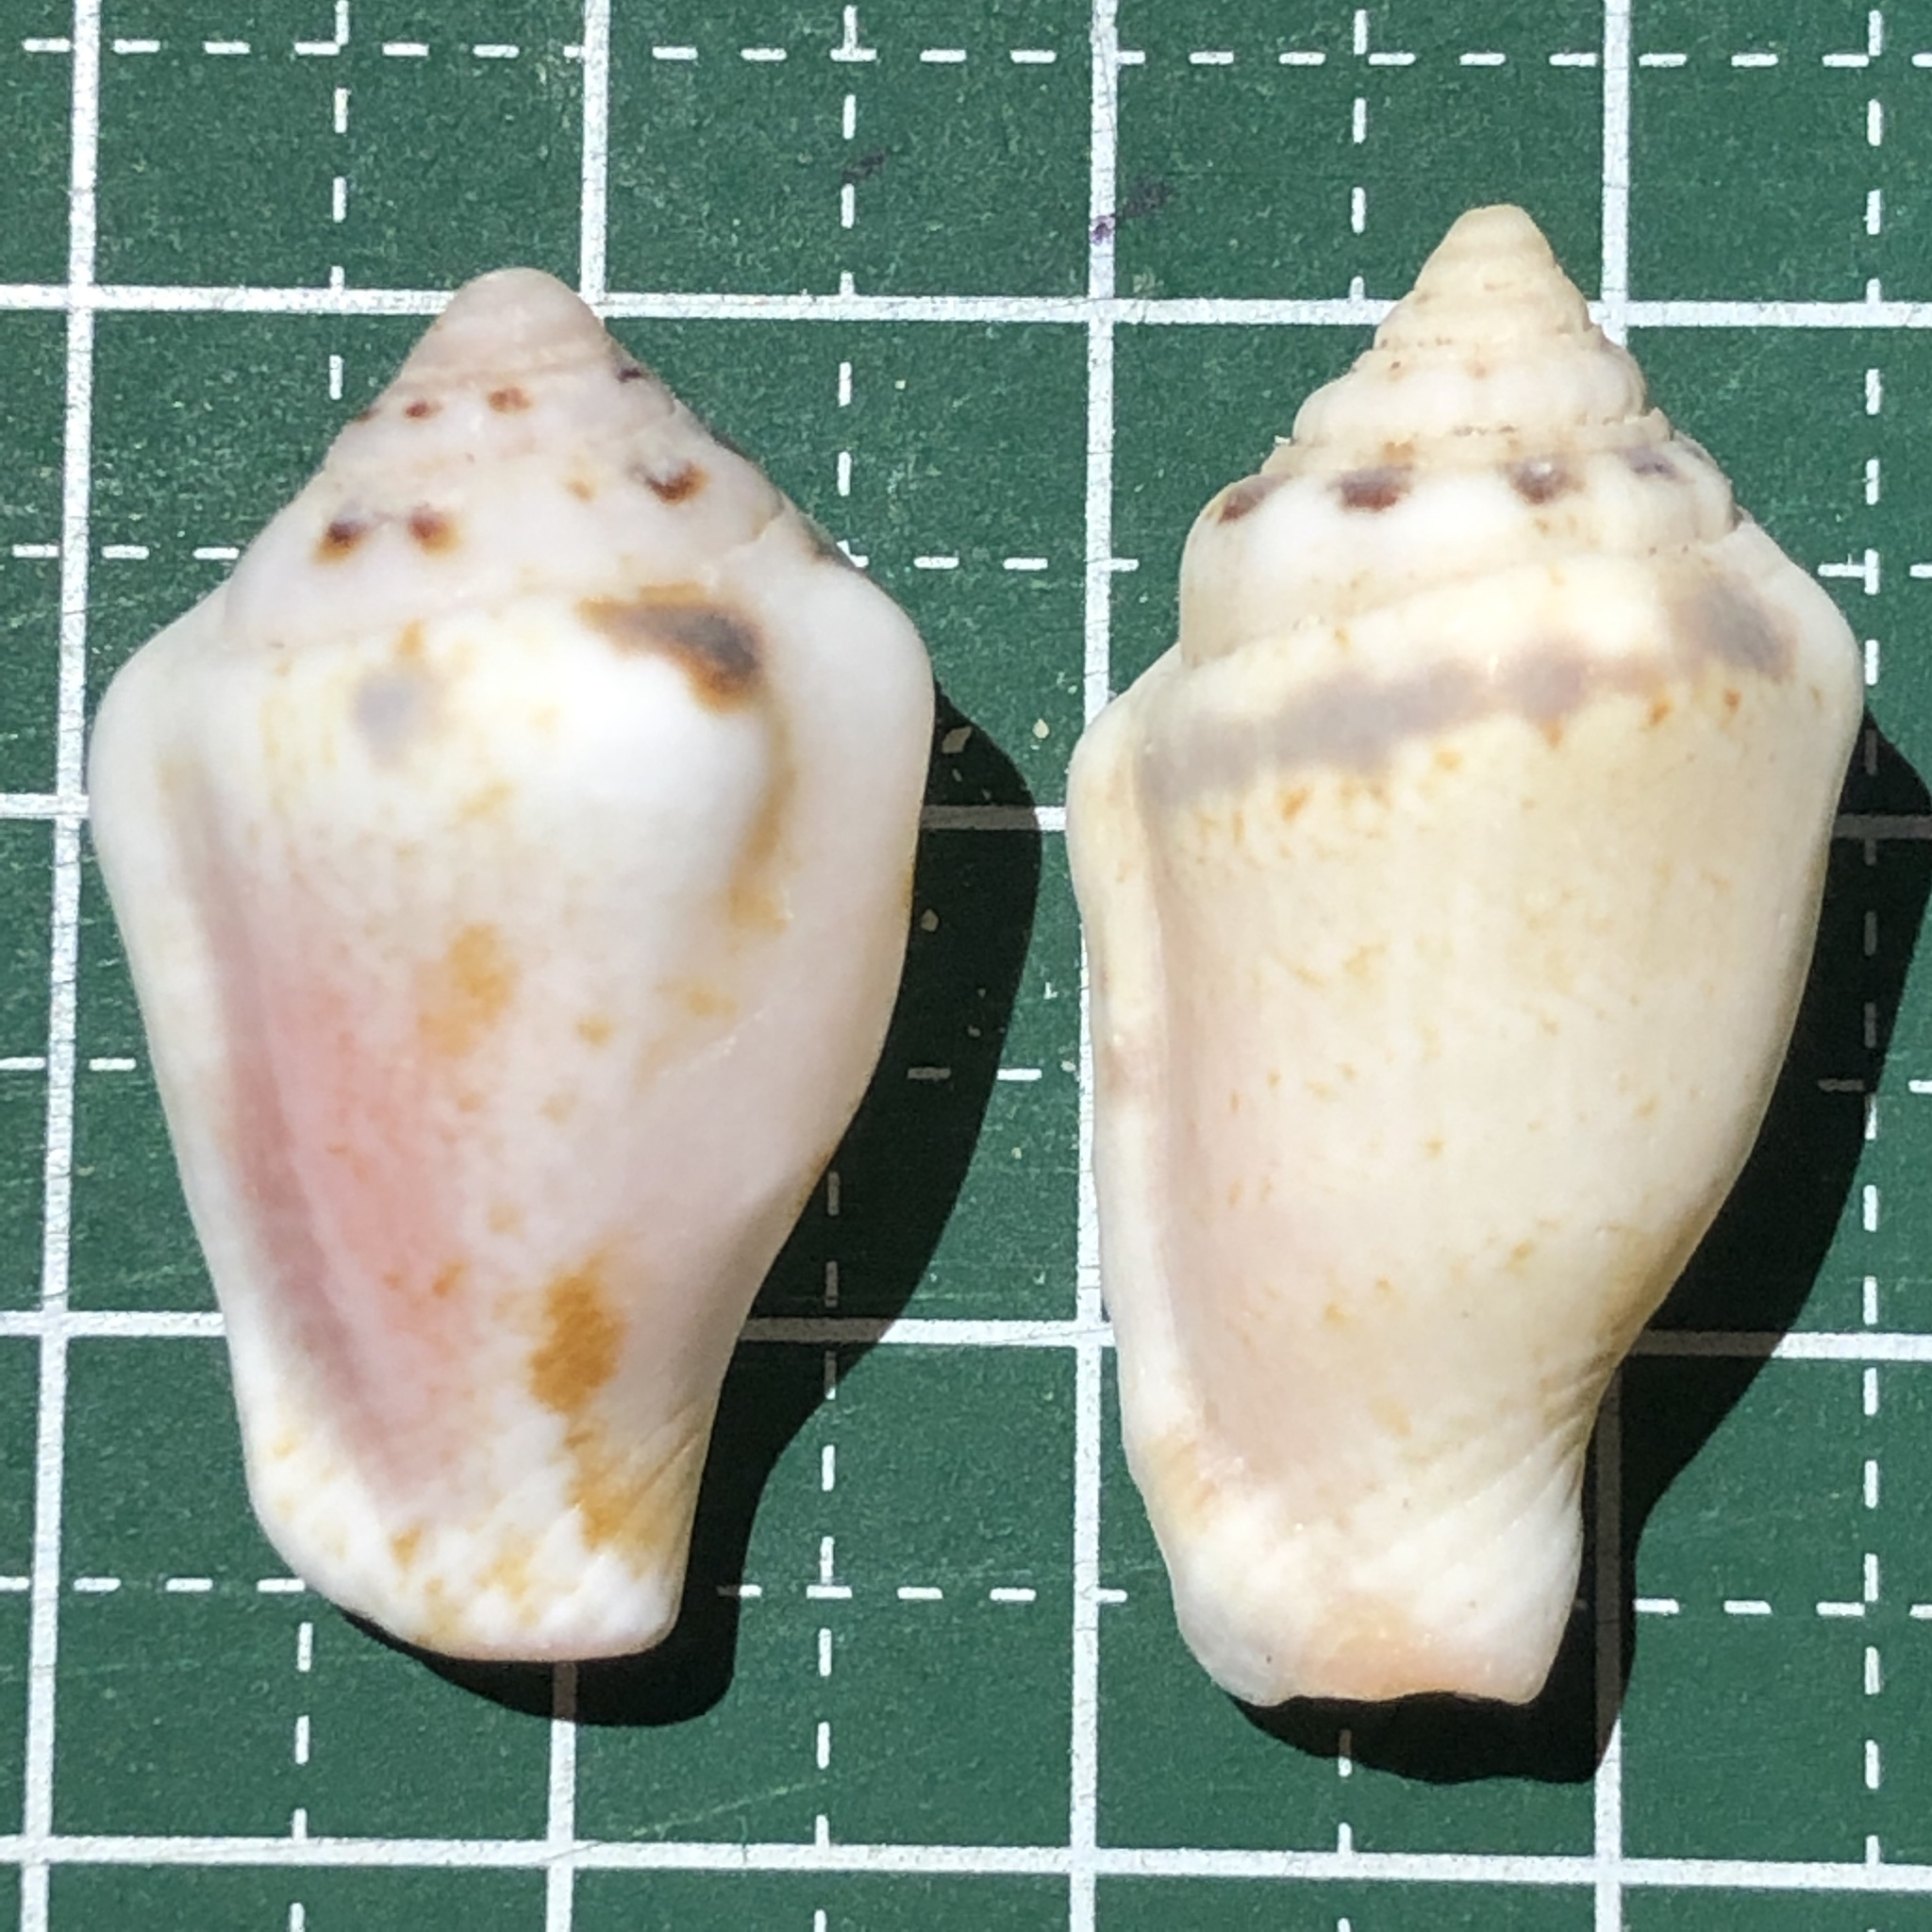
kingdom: Animalia
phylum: Mollusca
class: Gastropoda
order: Littorinimorpha
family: Strombidae
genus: Canarium
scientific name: Canarium mutabile
